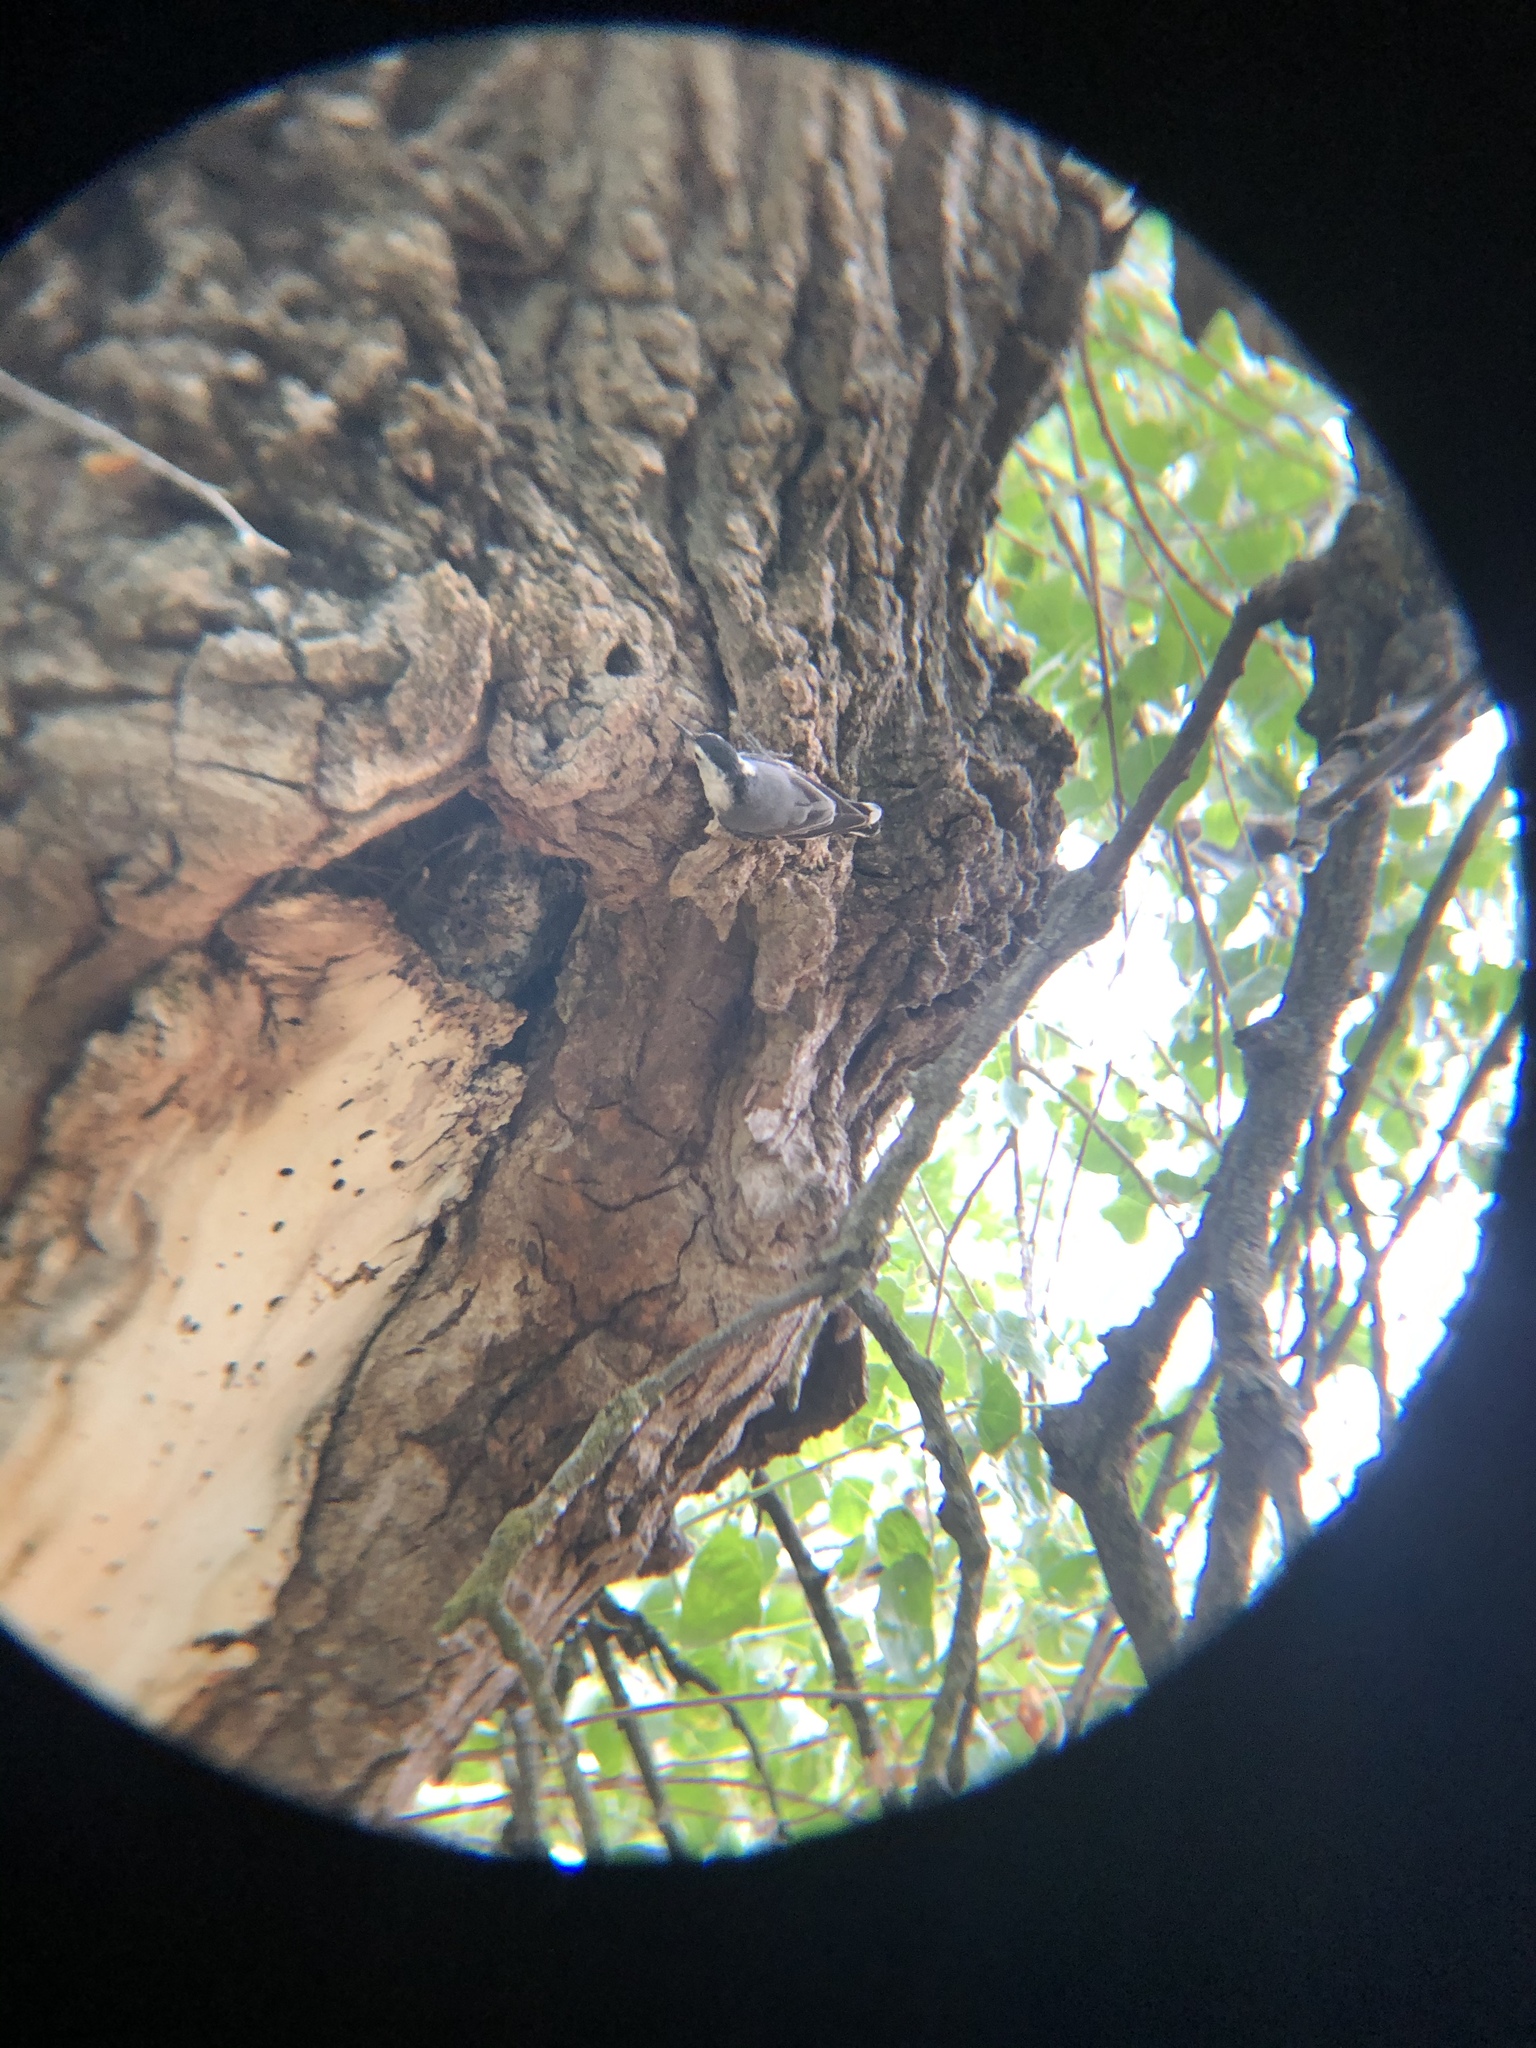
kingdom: Animalia
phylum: Chordata
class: Aves
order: Passeriformes
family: Sittidae
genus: Sitta
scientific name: Sitta carolinensis
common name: White-breasted nuthatch
